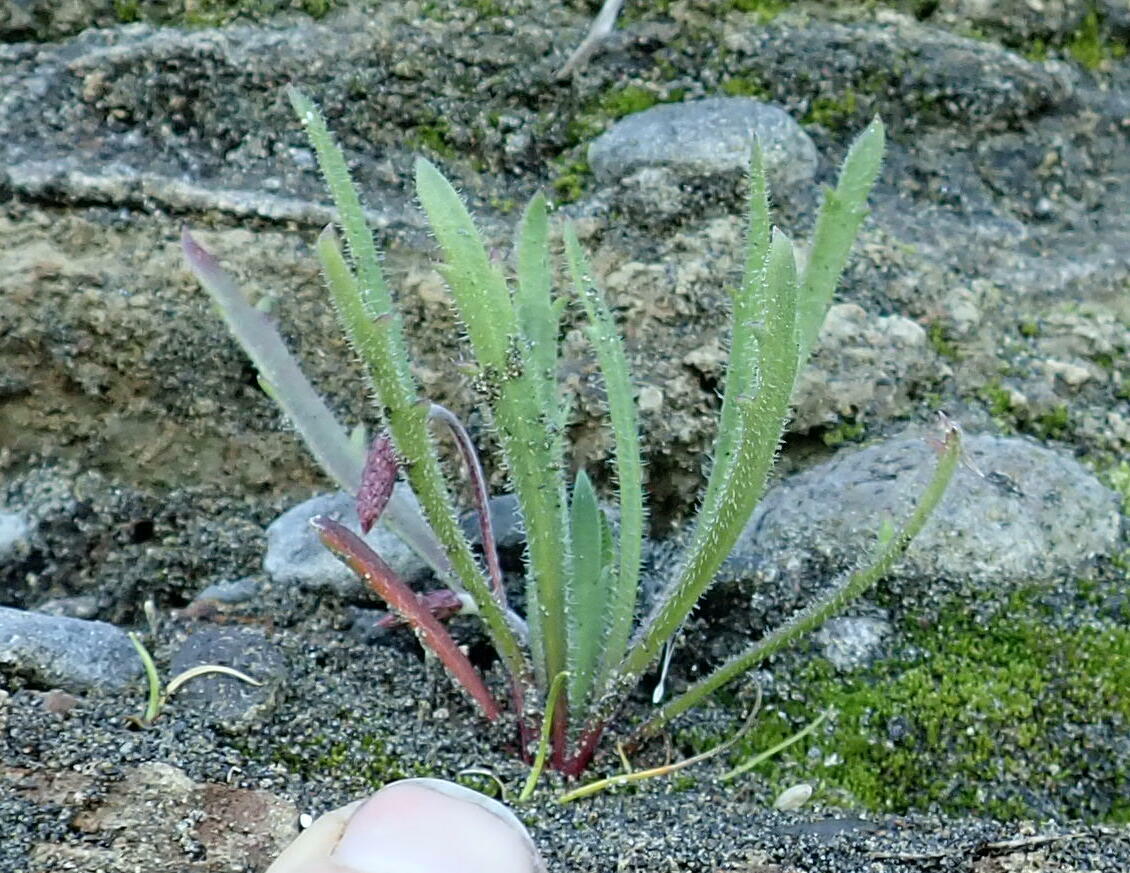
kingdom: Plantae
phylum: Tracheophyta
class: Magnoliopsida
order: Lamiales
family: Plantaginaceae
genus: Plantago
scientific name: Plantago coronopus
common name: Buck's-horn plantain
